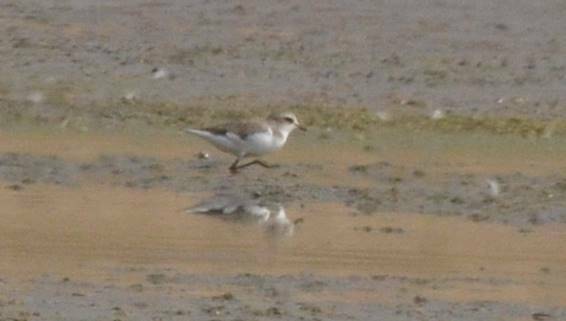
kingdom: Animalia
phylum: Chordata
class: Aves
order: Charadriiformes
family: Charadriidae
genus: Charadrius
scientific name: Charadrius alexandrinus
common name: Kentish plover
